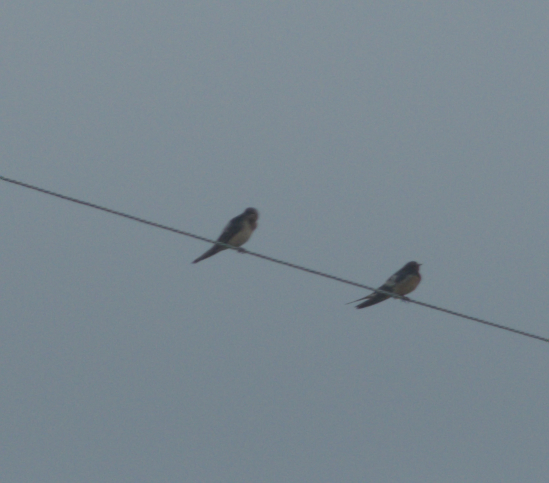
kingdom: Animalia
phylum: Chordata
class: Aves
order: Passeriformes
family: Hirundinidae
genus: Hirundo
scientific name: Hirundo rustica
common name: Barn swallow
